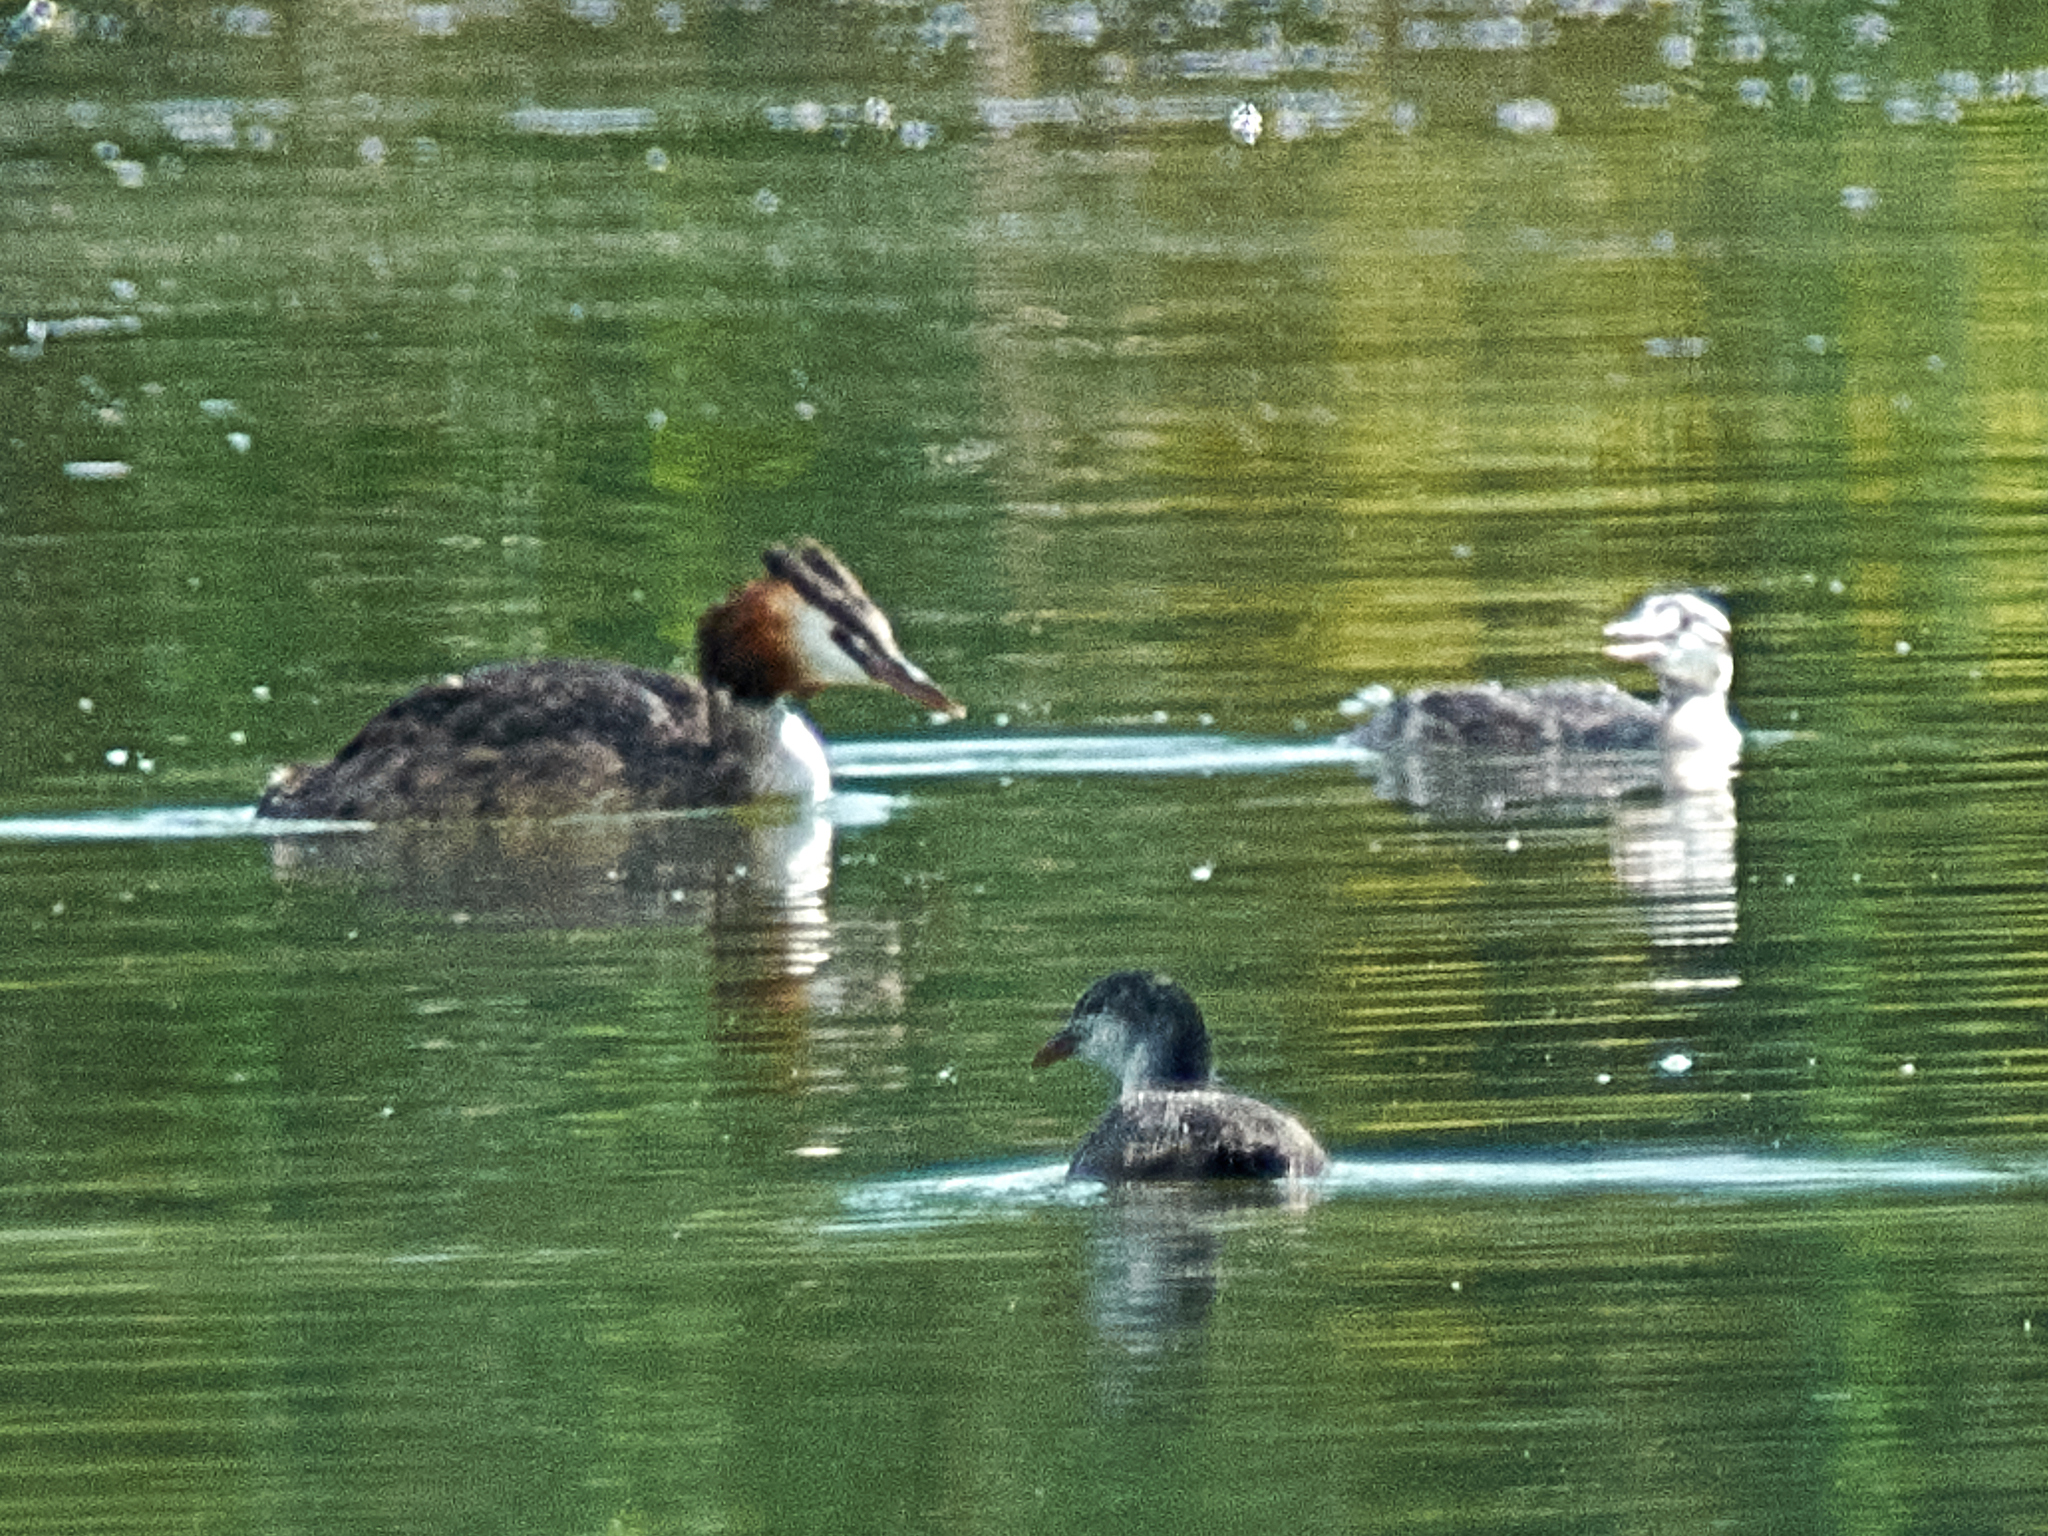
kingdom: Animalia
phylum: Chordata
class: Aves
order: Podicipediformes
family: Podicipedidae
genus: Podiceps
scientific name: Podiceps cristatus
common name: Great crested grebe
